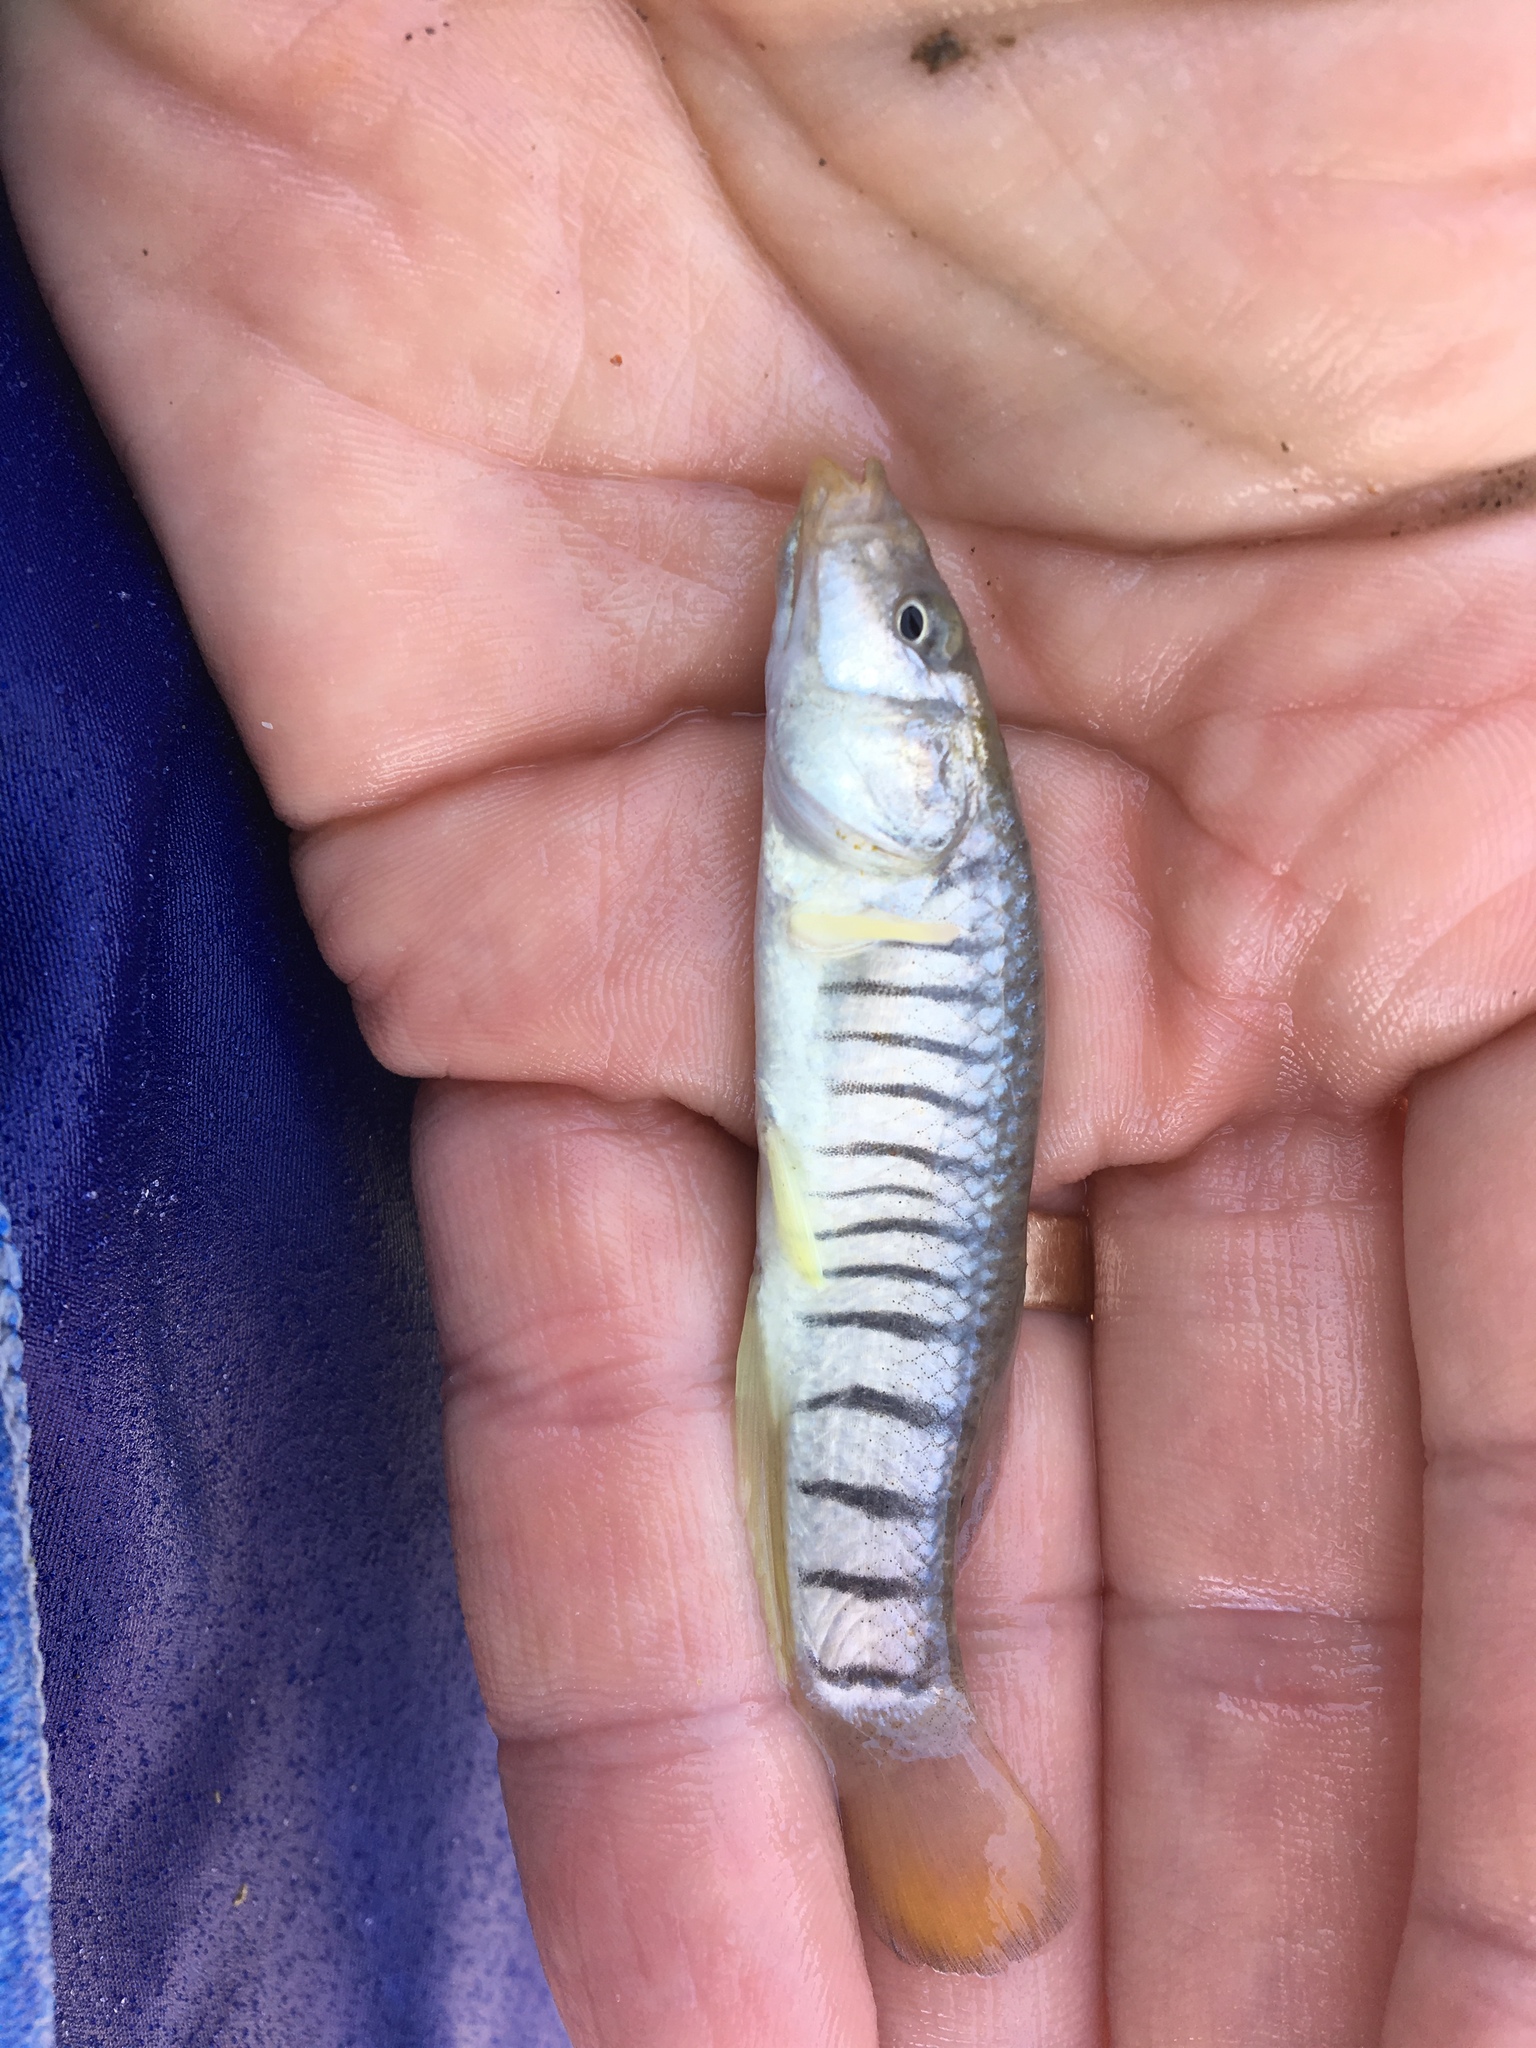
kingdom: Animalia
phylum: Chordata
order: Cyprinodontiformes
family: Fundulidae
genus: Fundulus
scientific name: Fundulus majalis
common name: Striped killifish
